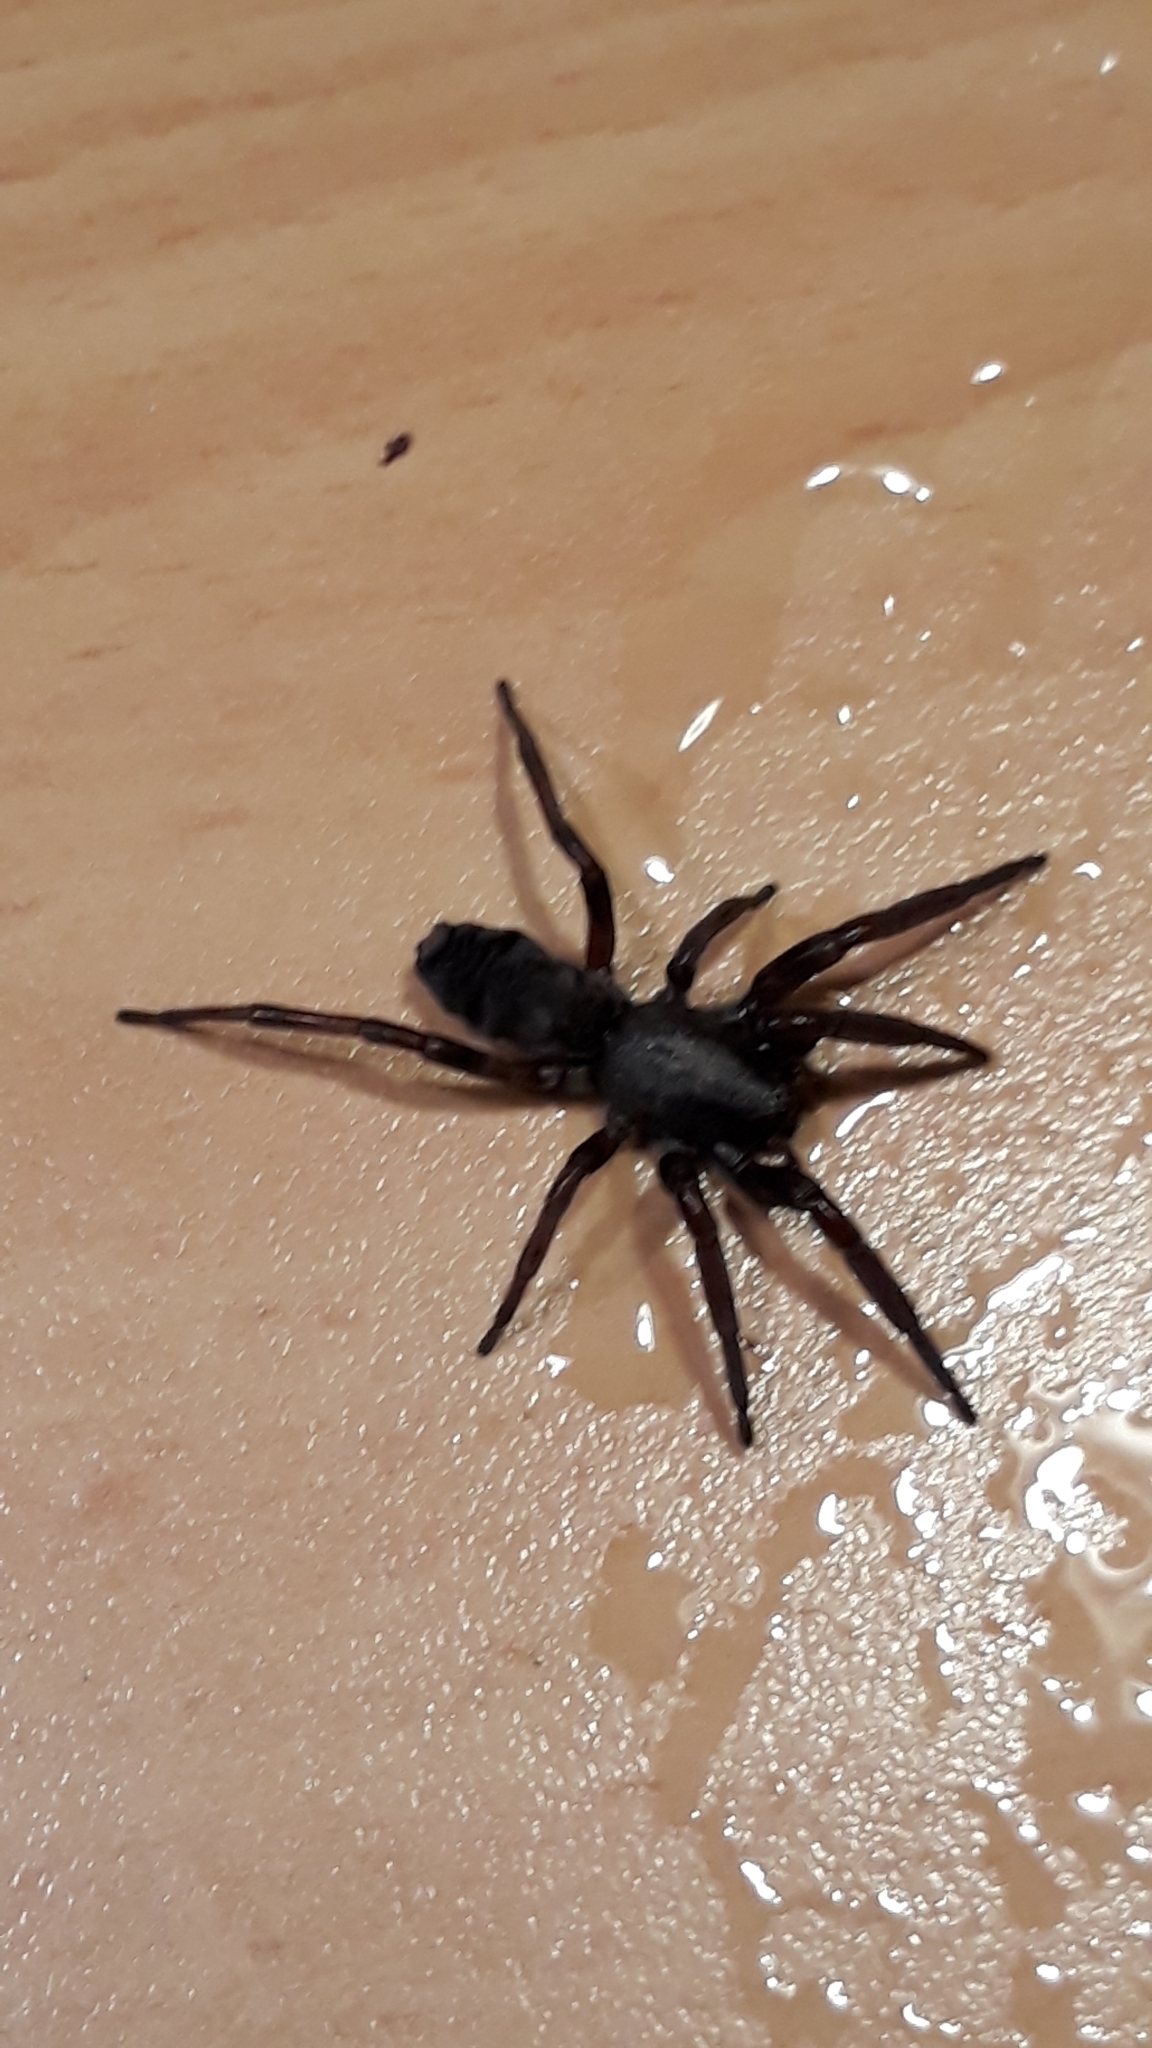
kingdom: Animalia
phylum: Arthropoda
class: Arachnida
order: Araneae
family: Lamponidae
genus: Lampona
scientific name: Lampona cylindrata
